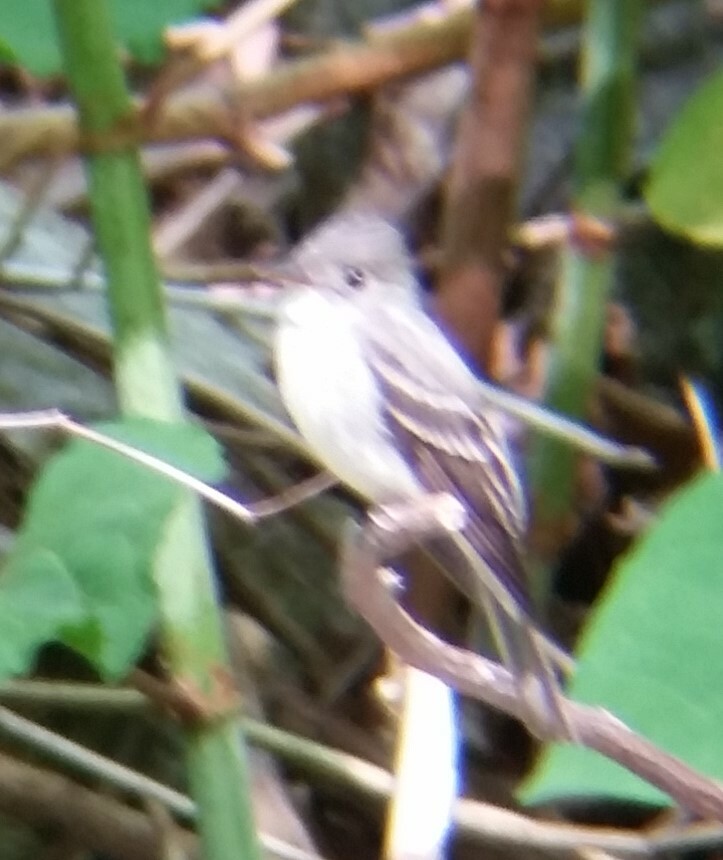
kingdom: Animalia
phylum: Chordata
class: Aves
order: Passeriformes
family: Tyrannidae
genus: Contopus
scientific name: Contopus virens
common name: Eastern wood-pewee
